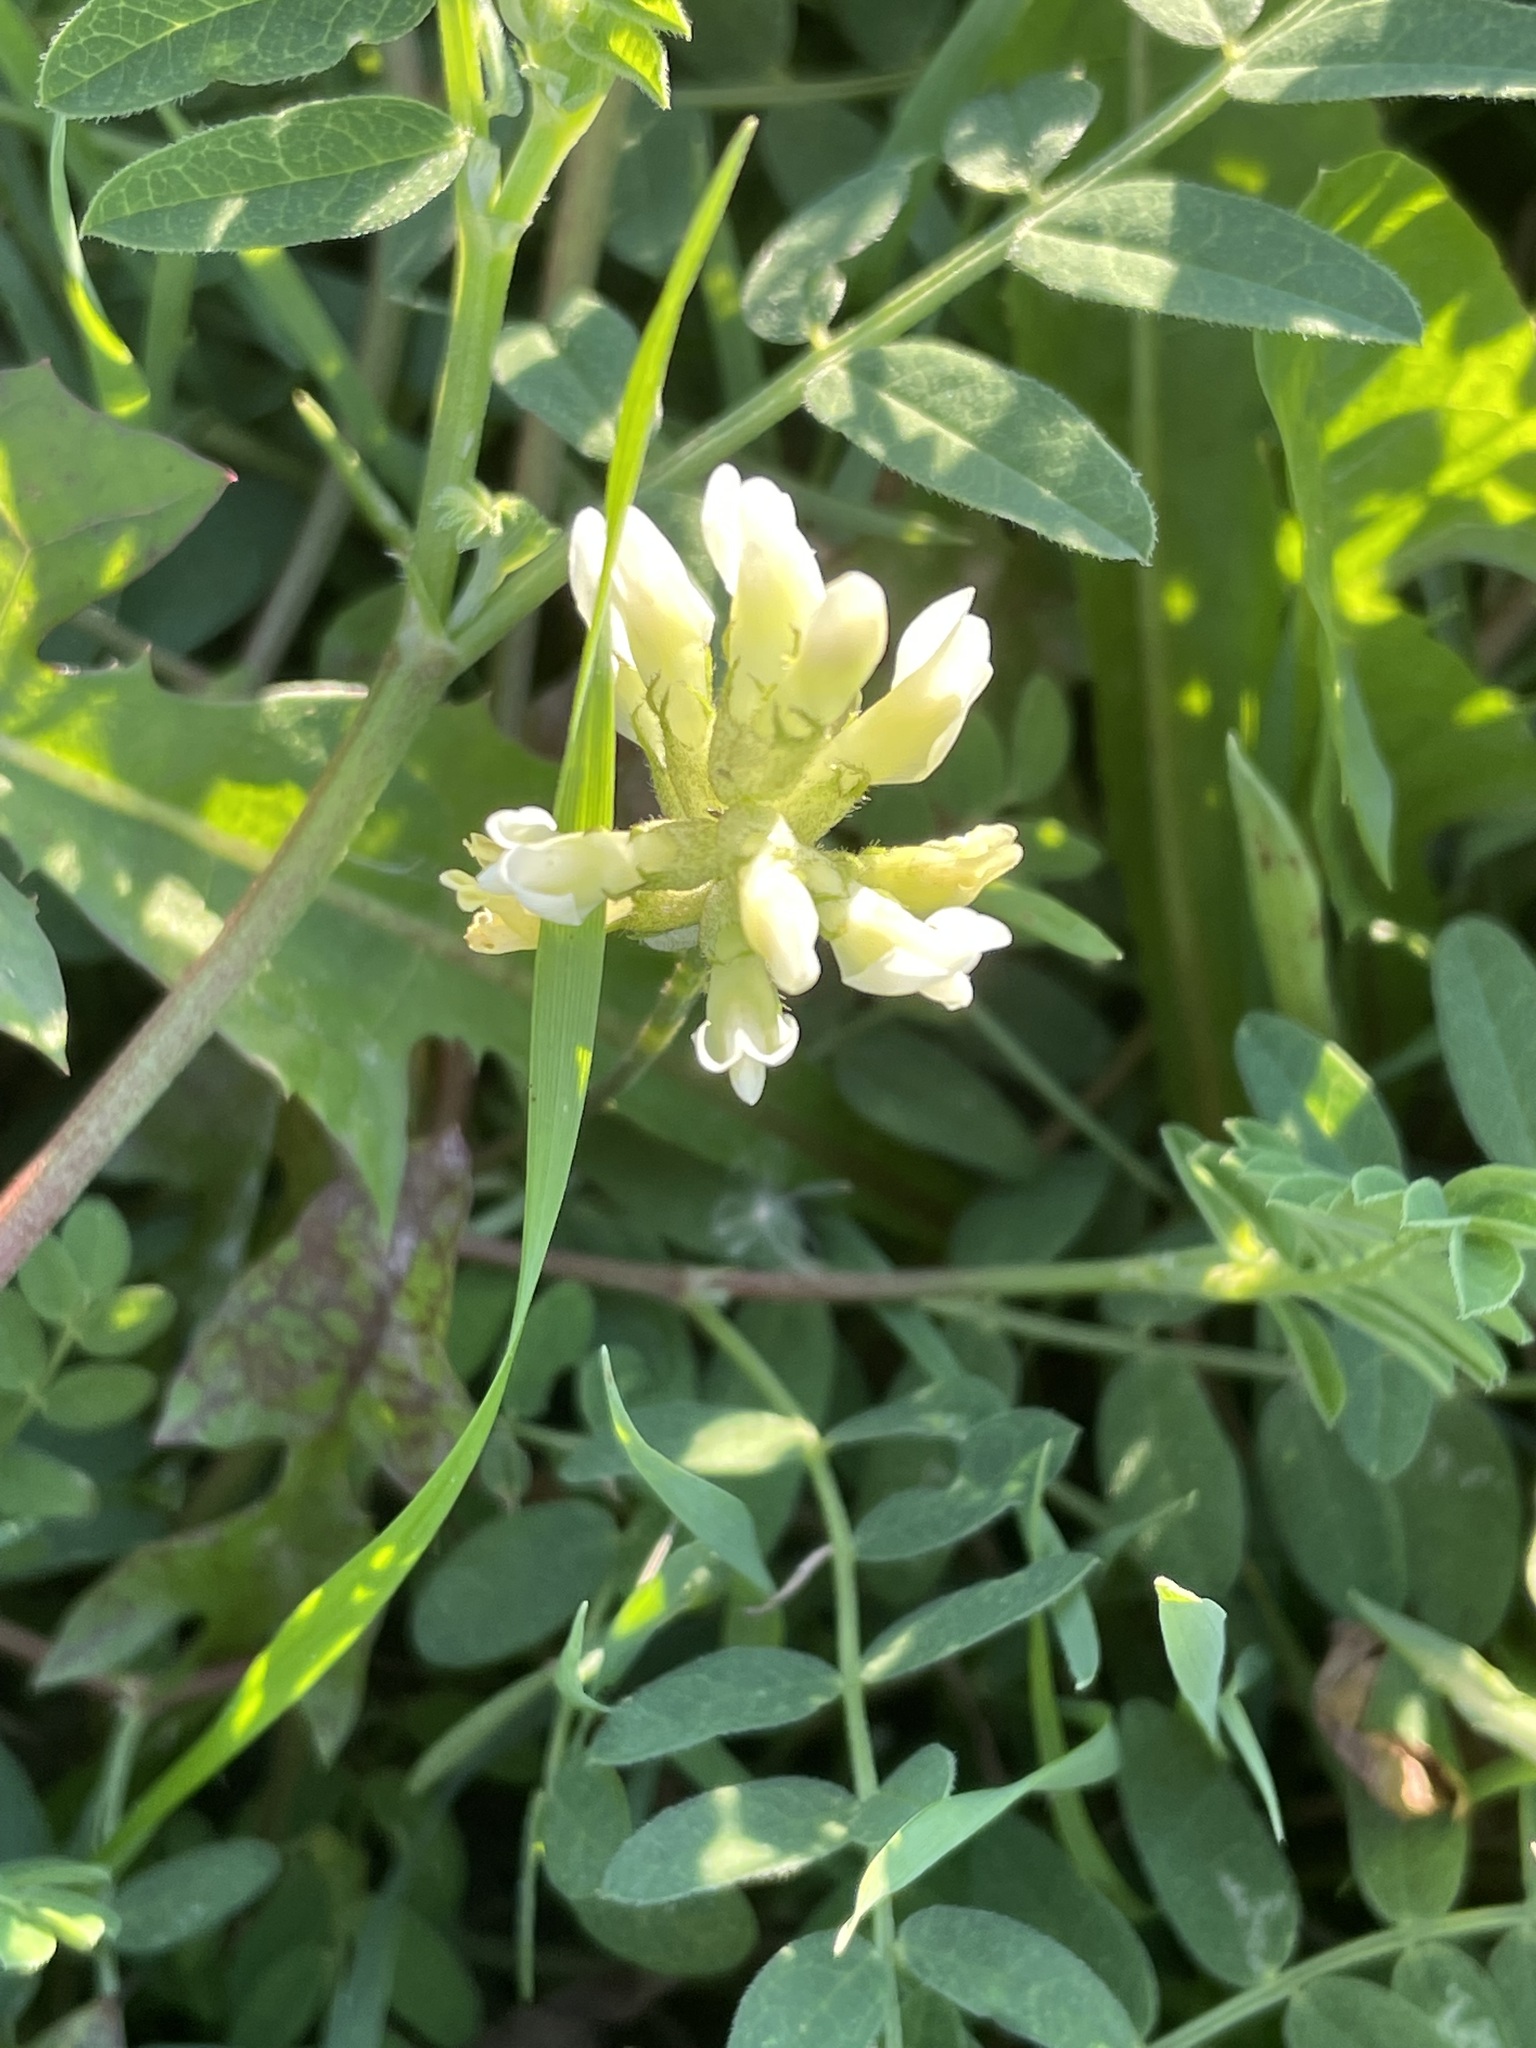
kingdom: Plantae
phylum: Tracheophyta
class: Magnoliopsida
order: Fabales
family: Fabaceae
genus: Astragalus
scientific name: Astragalus cicer
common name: Chick-pea milk-vetch
